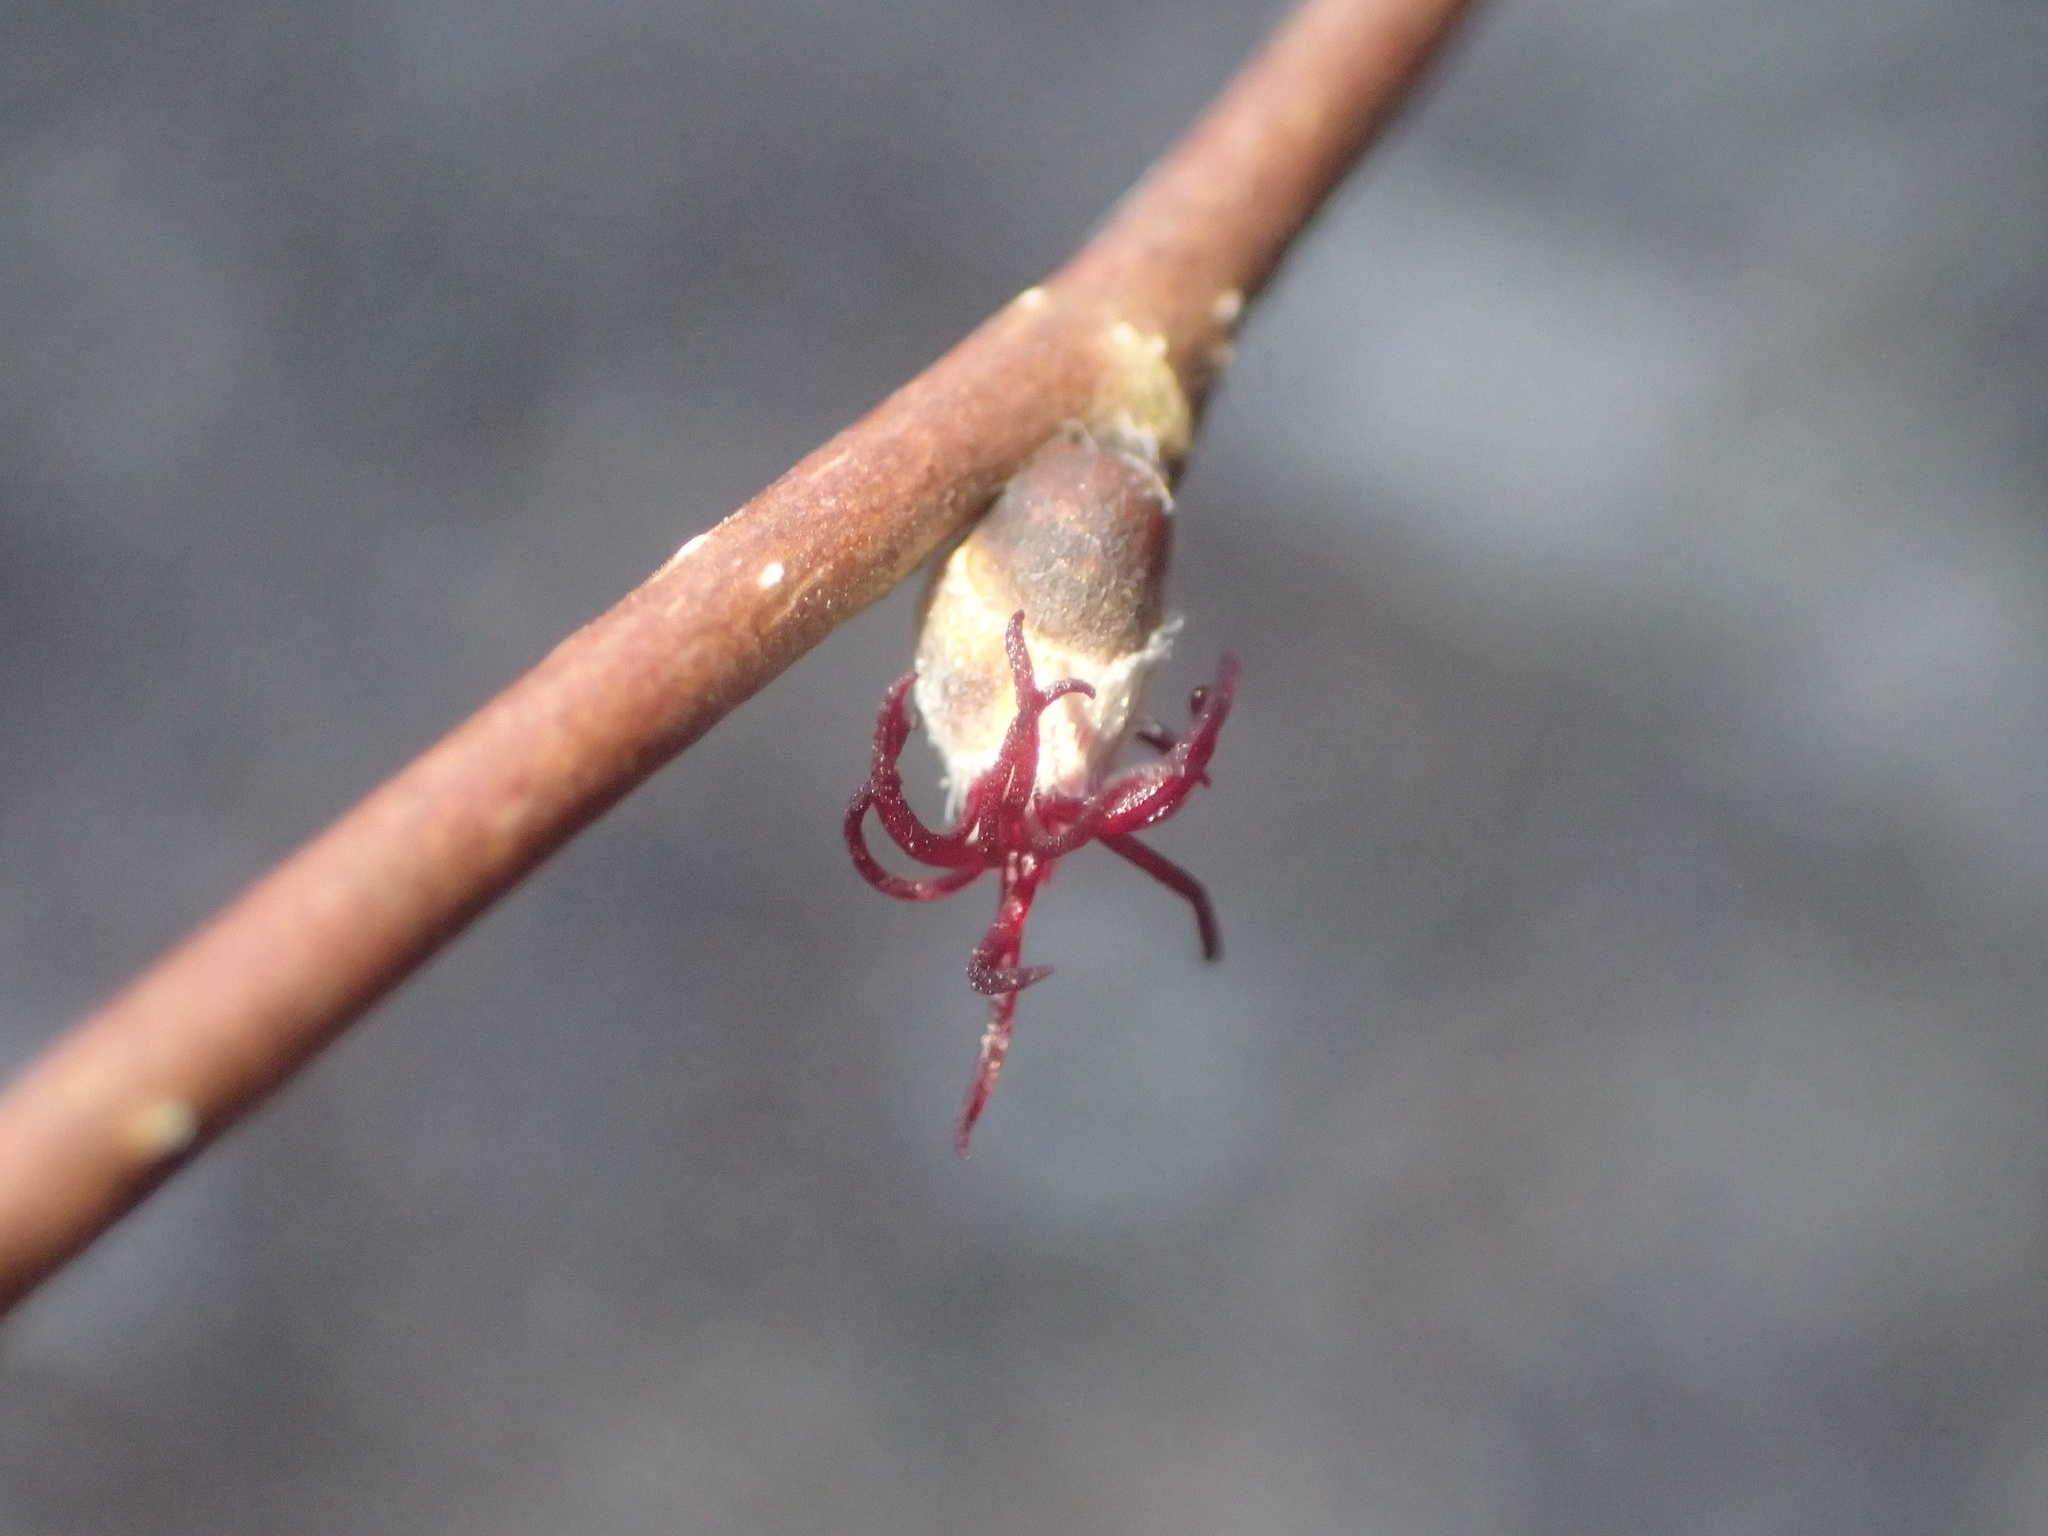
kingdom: Plantae
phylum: Tracheophyta
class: Magnoliopsida
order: Fagales
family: Betulaceae
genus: Corylus
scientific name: Corylus cornuta
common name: Beaked hazel
